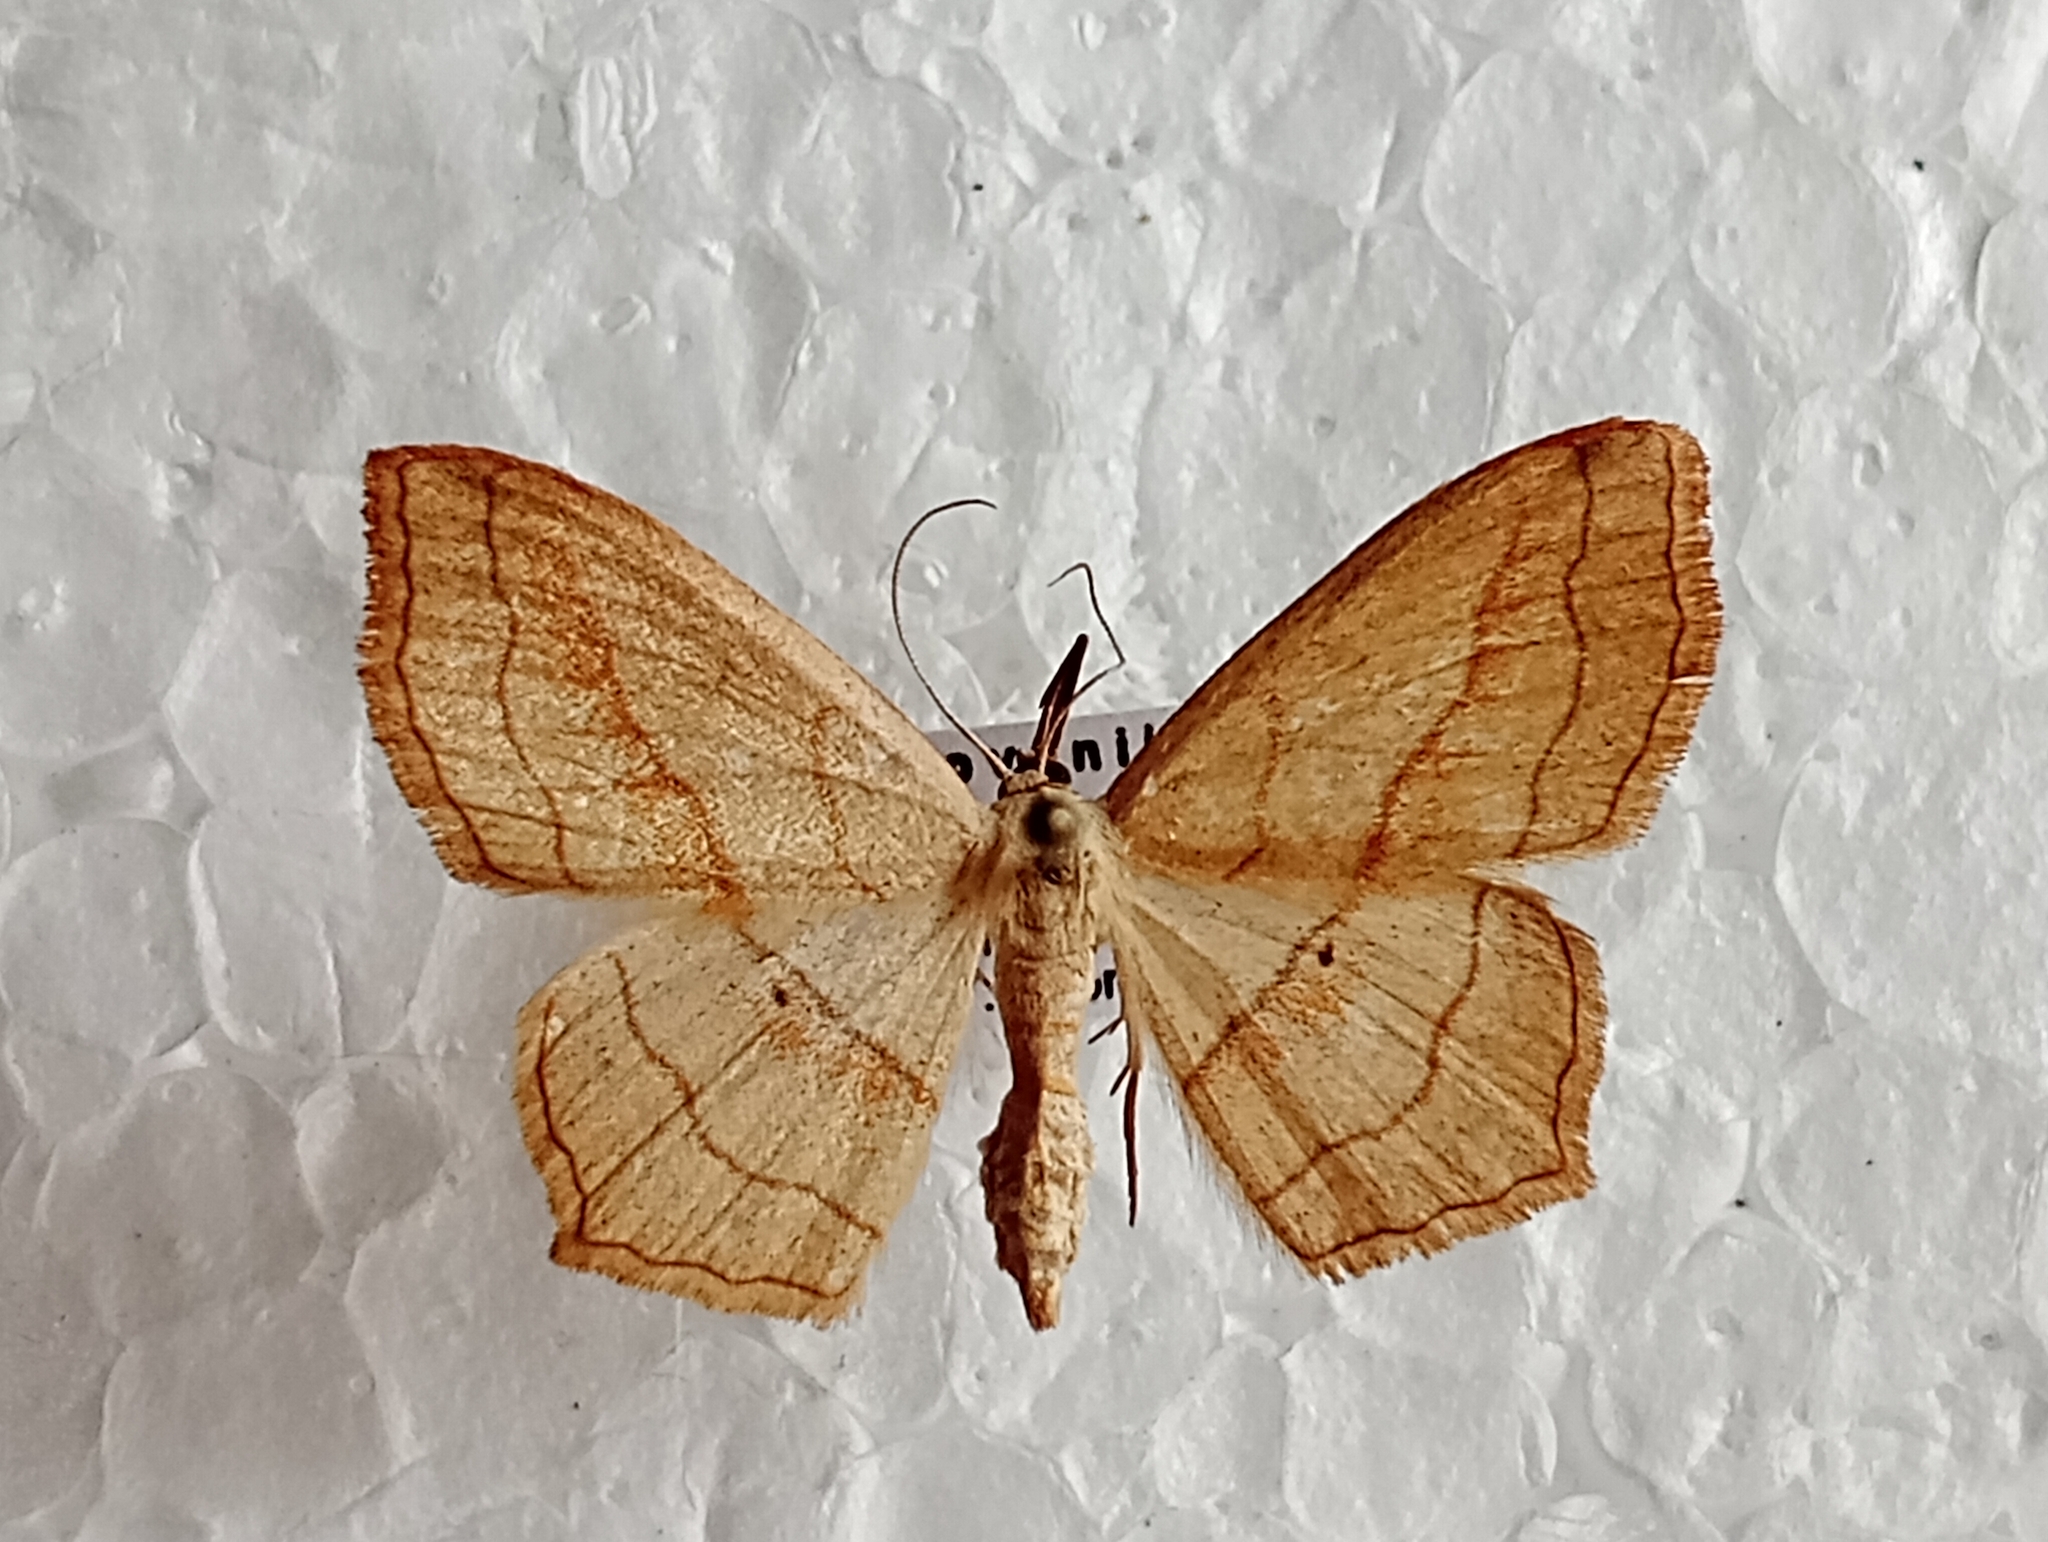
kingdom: Animalia
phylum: Arthropoda
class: Insecta
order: Lepidoptera
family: Geometridae
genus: Scopula
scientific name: Scopula imitaria
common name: Small blood-vein
